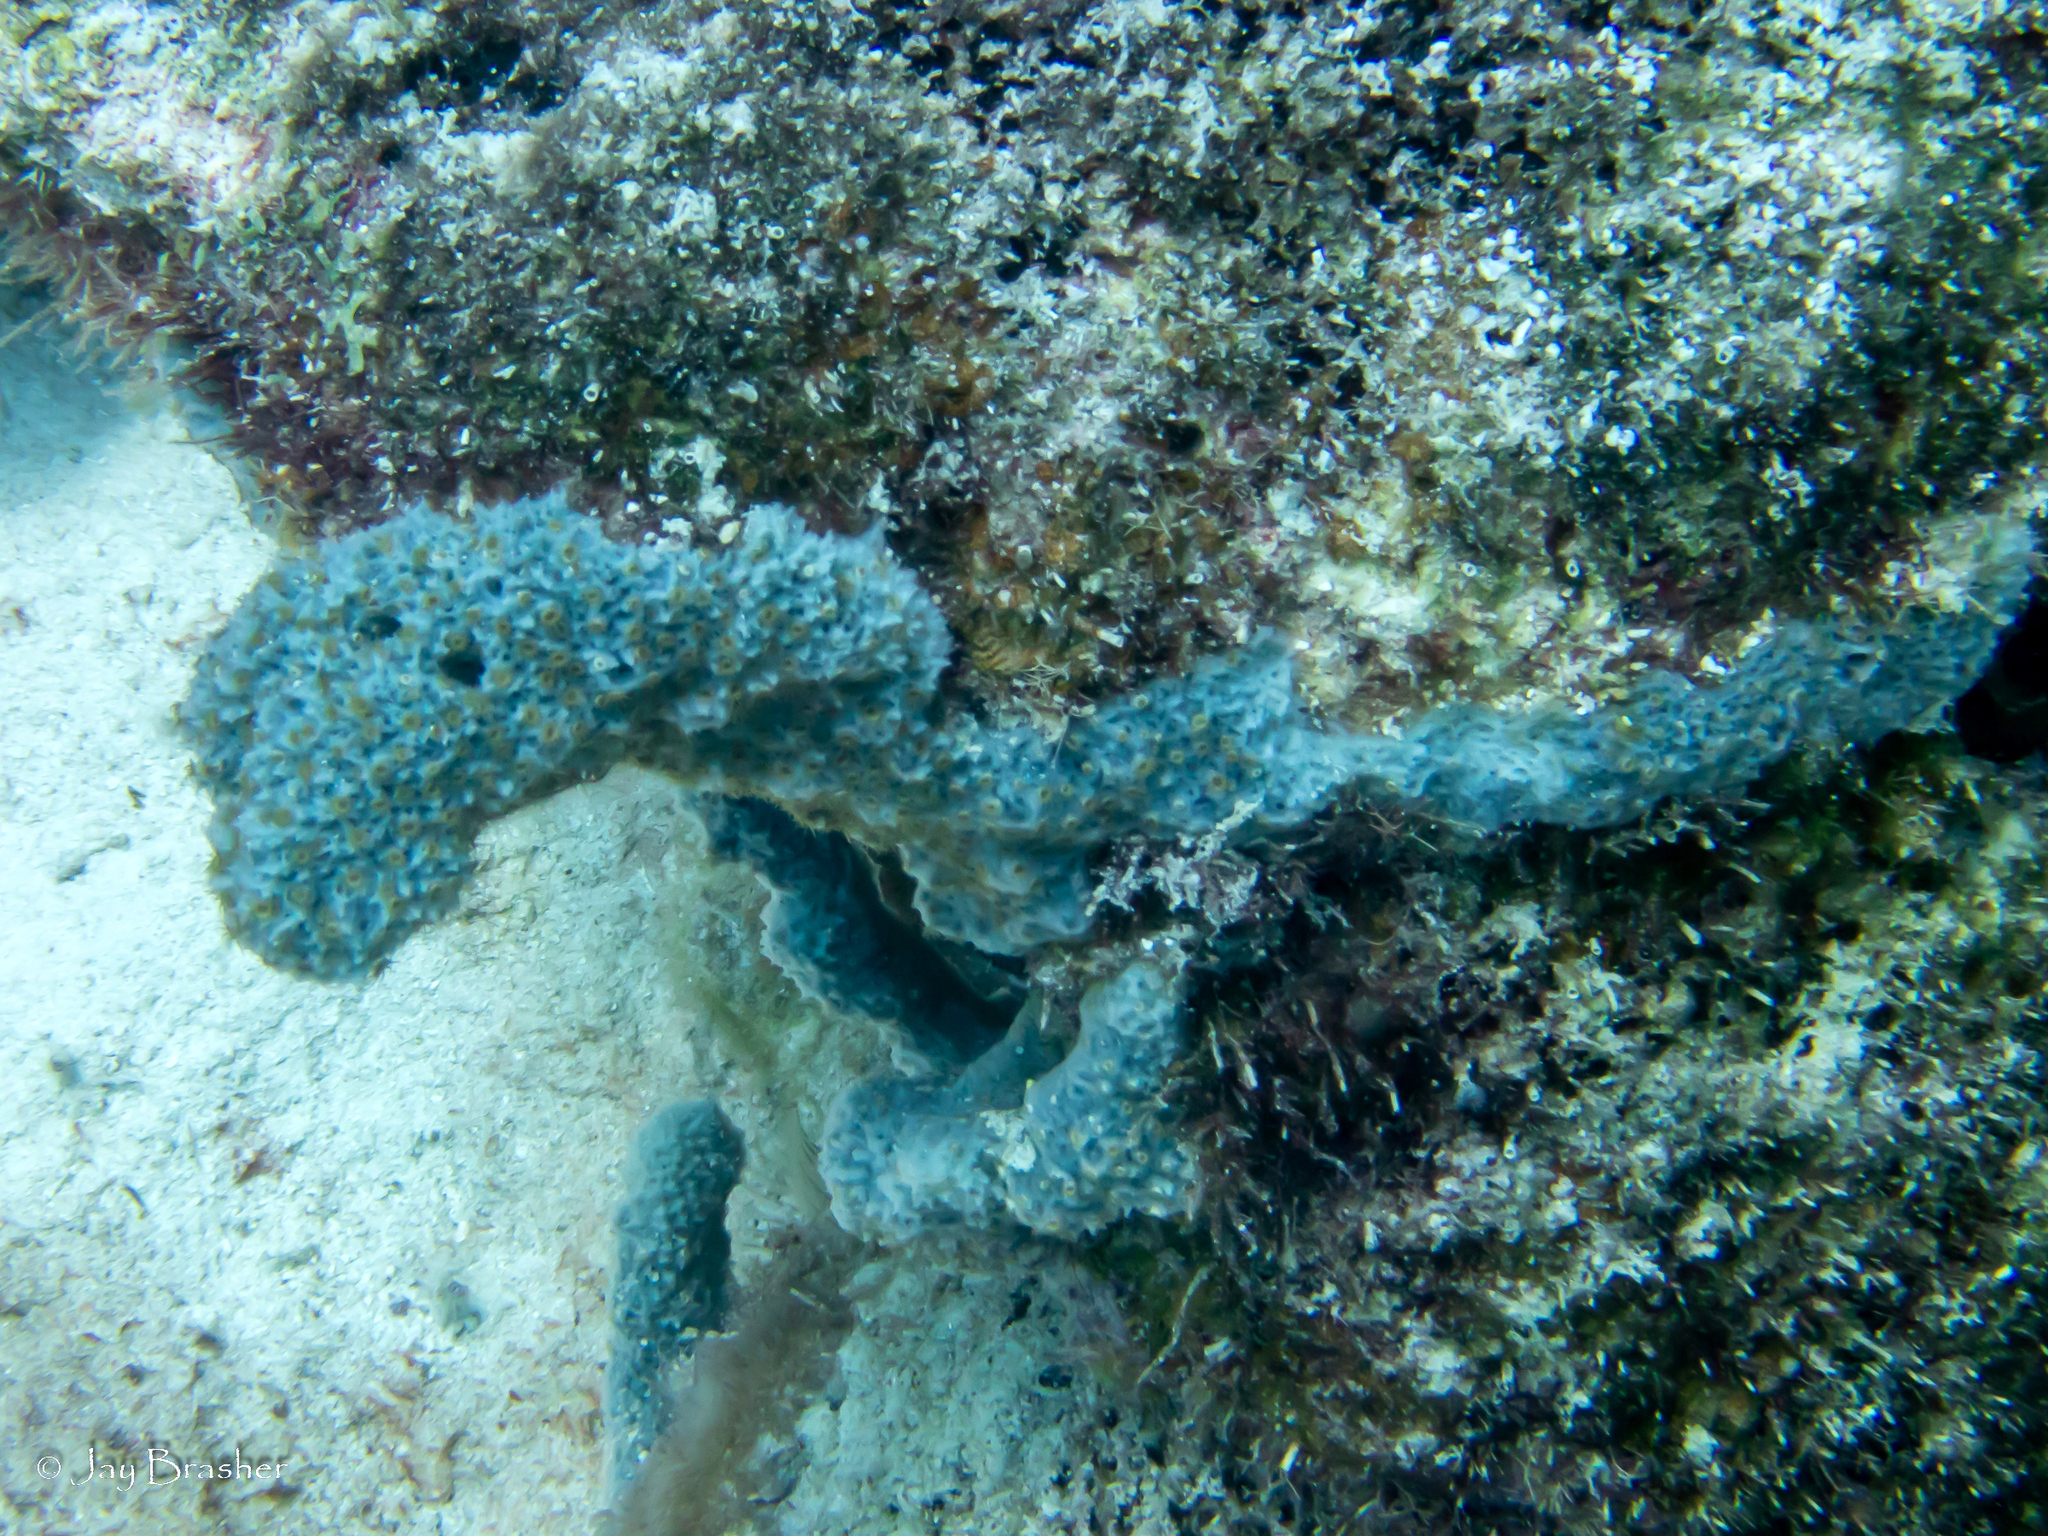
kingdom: Animalia
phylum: Porifera
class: Demospongiae
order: Haplosclerida
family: Niphatidae
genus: Niphates
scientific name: Niphates erecta
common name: Lavender rope sponge
